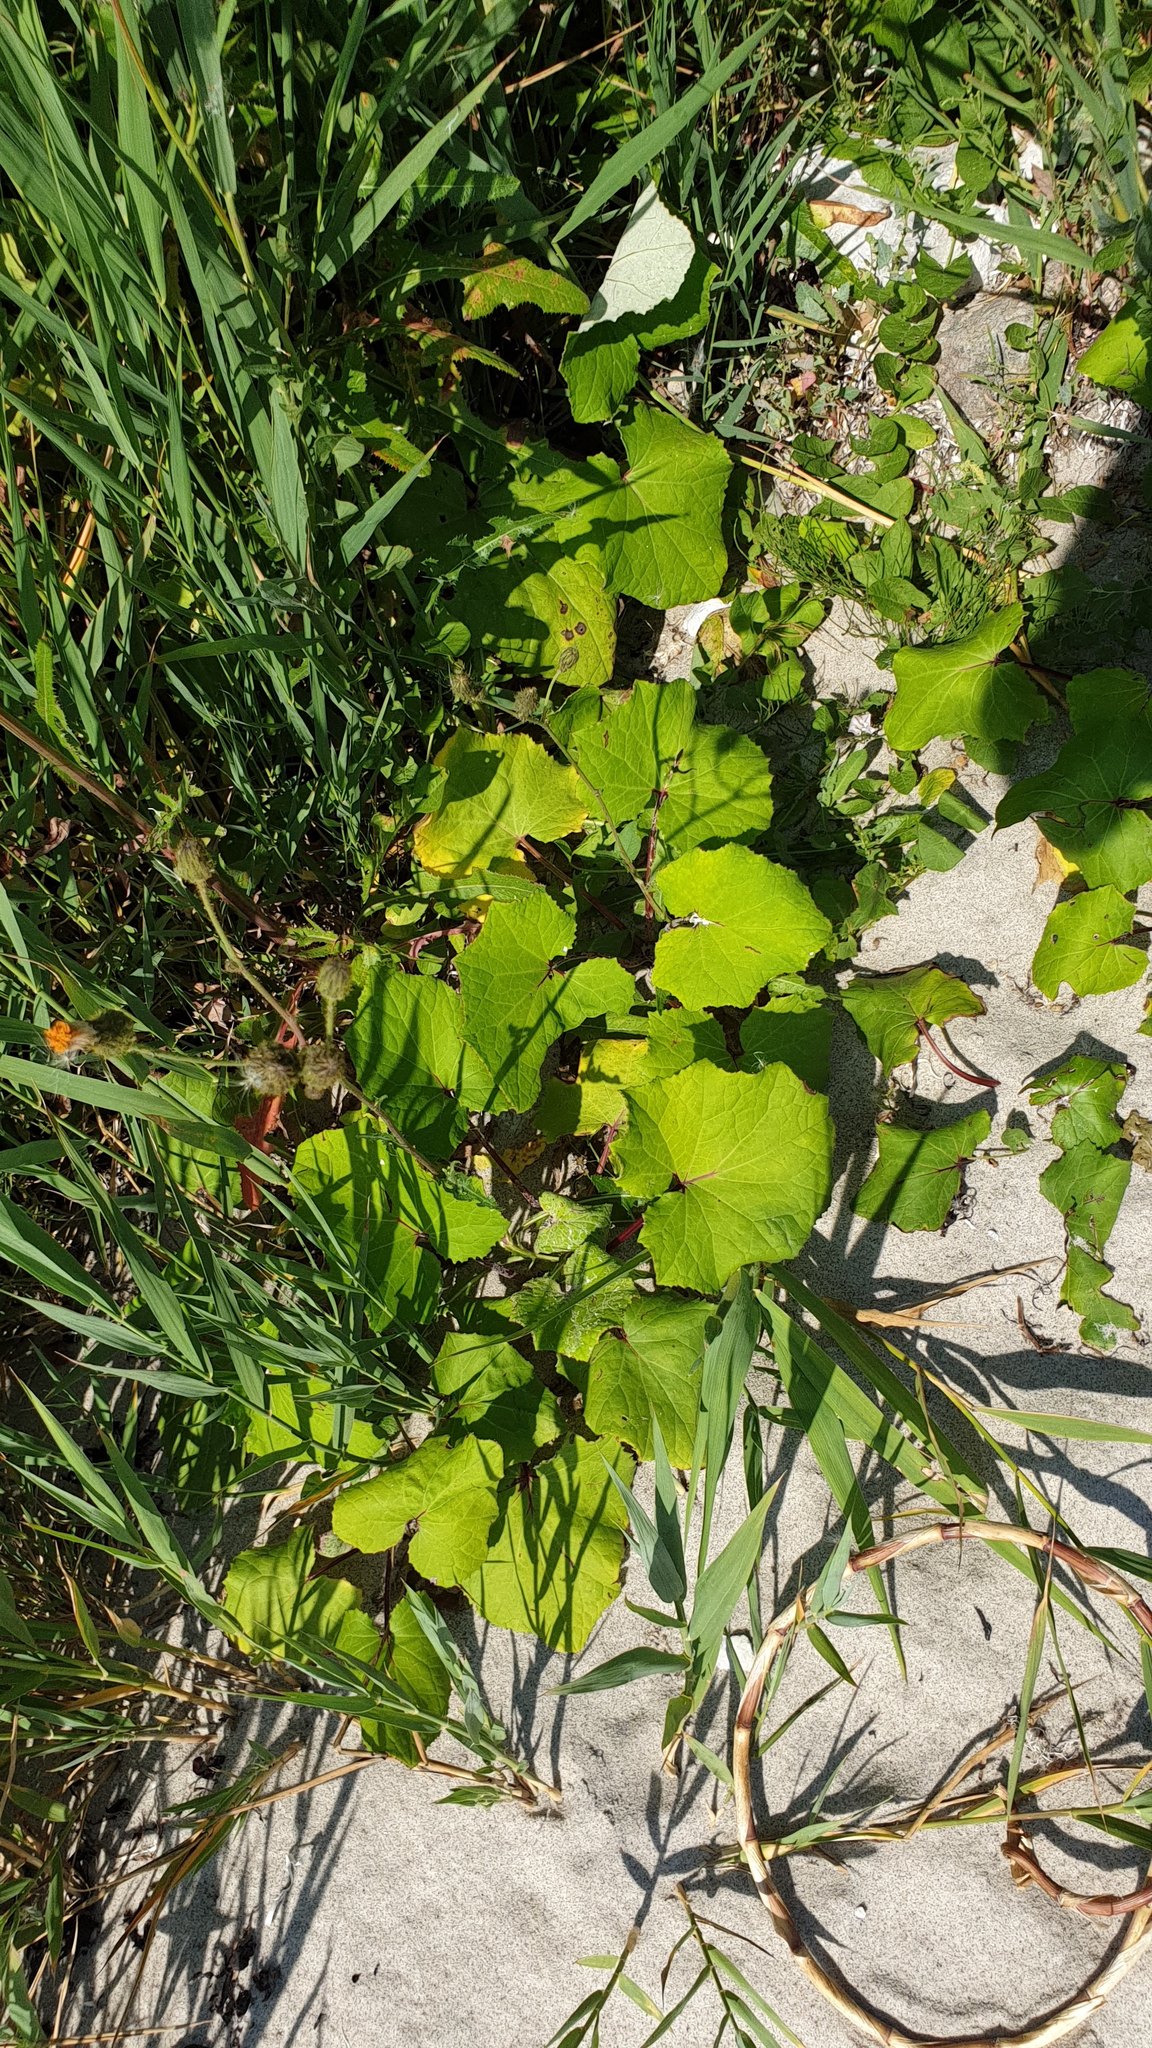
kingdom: Plantae
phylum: Tracheophyta
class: Magnoliopsida
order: Asterales
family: Asteraceae
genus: Tussilago
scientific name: Tussilago farfara
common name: Coltsfoot
